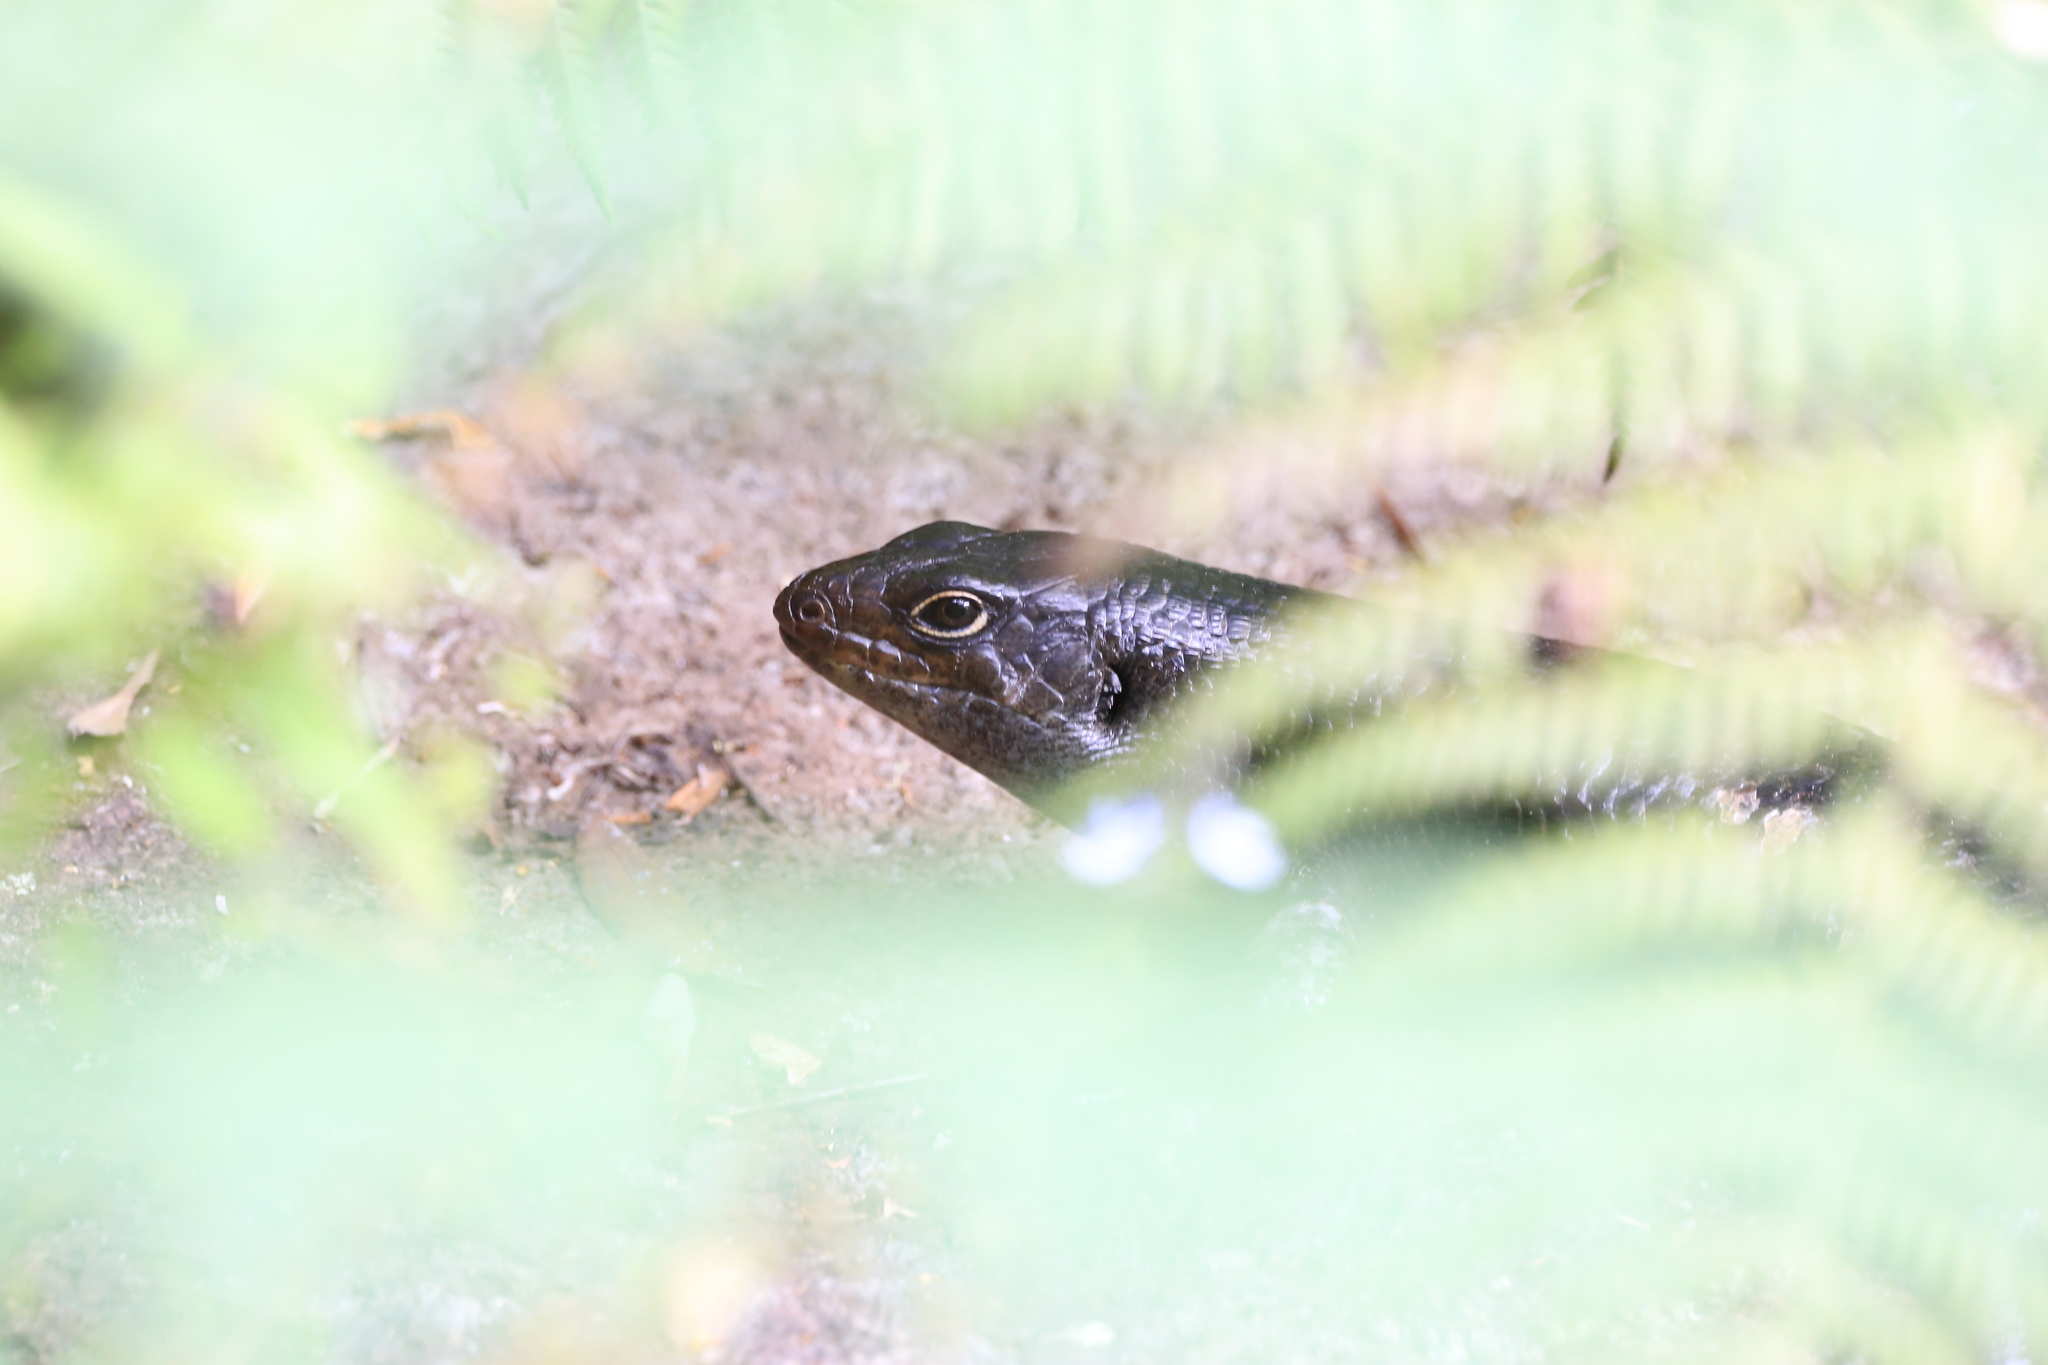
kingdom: Animalia
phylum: Chordata
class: Squamata
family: Scincidae
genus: Bellatorias
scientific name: Bellatorias major
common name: Land mullet
